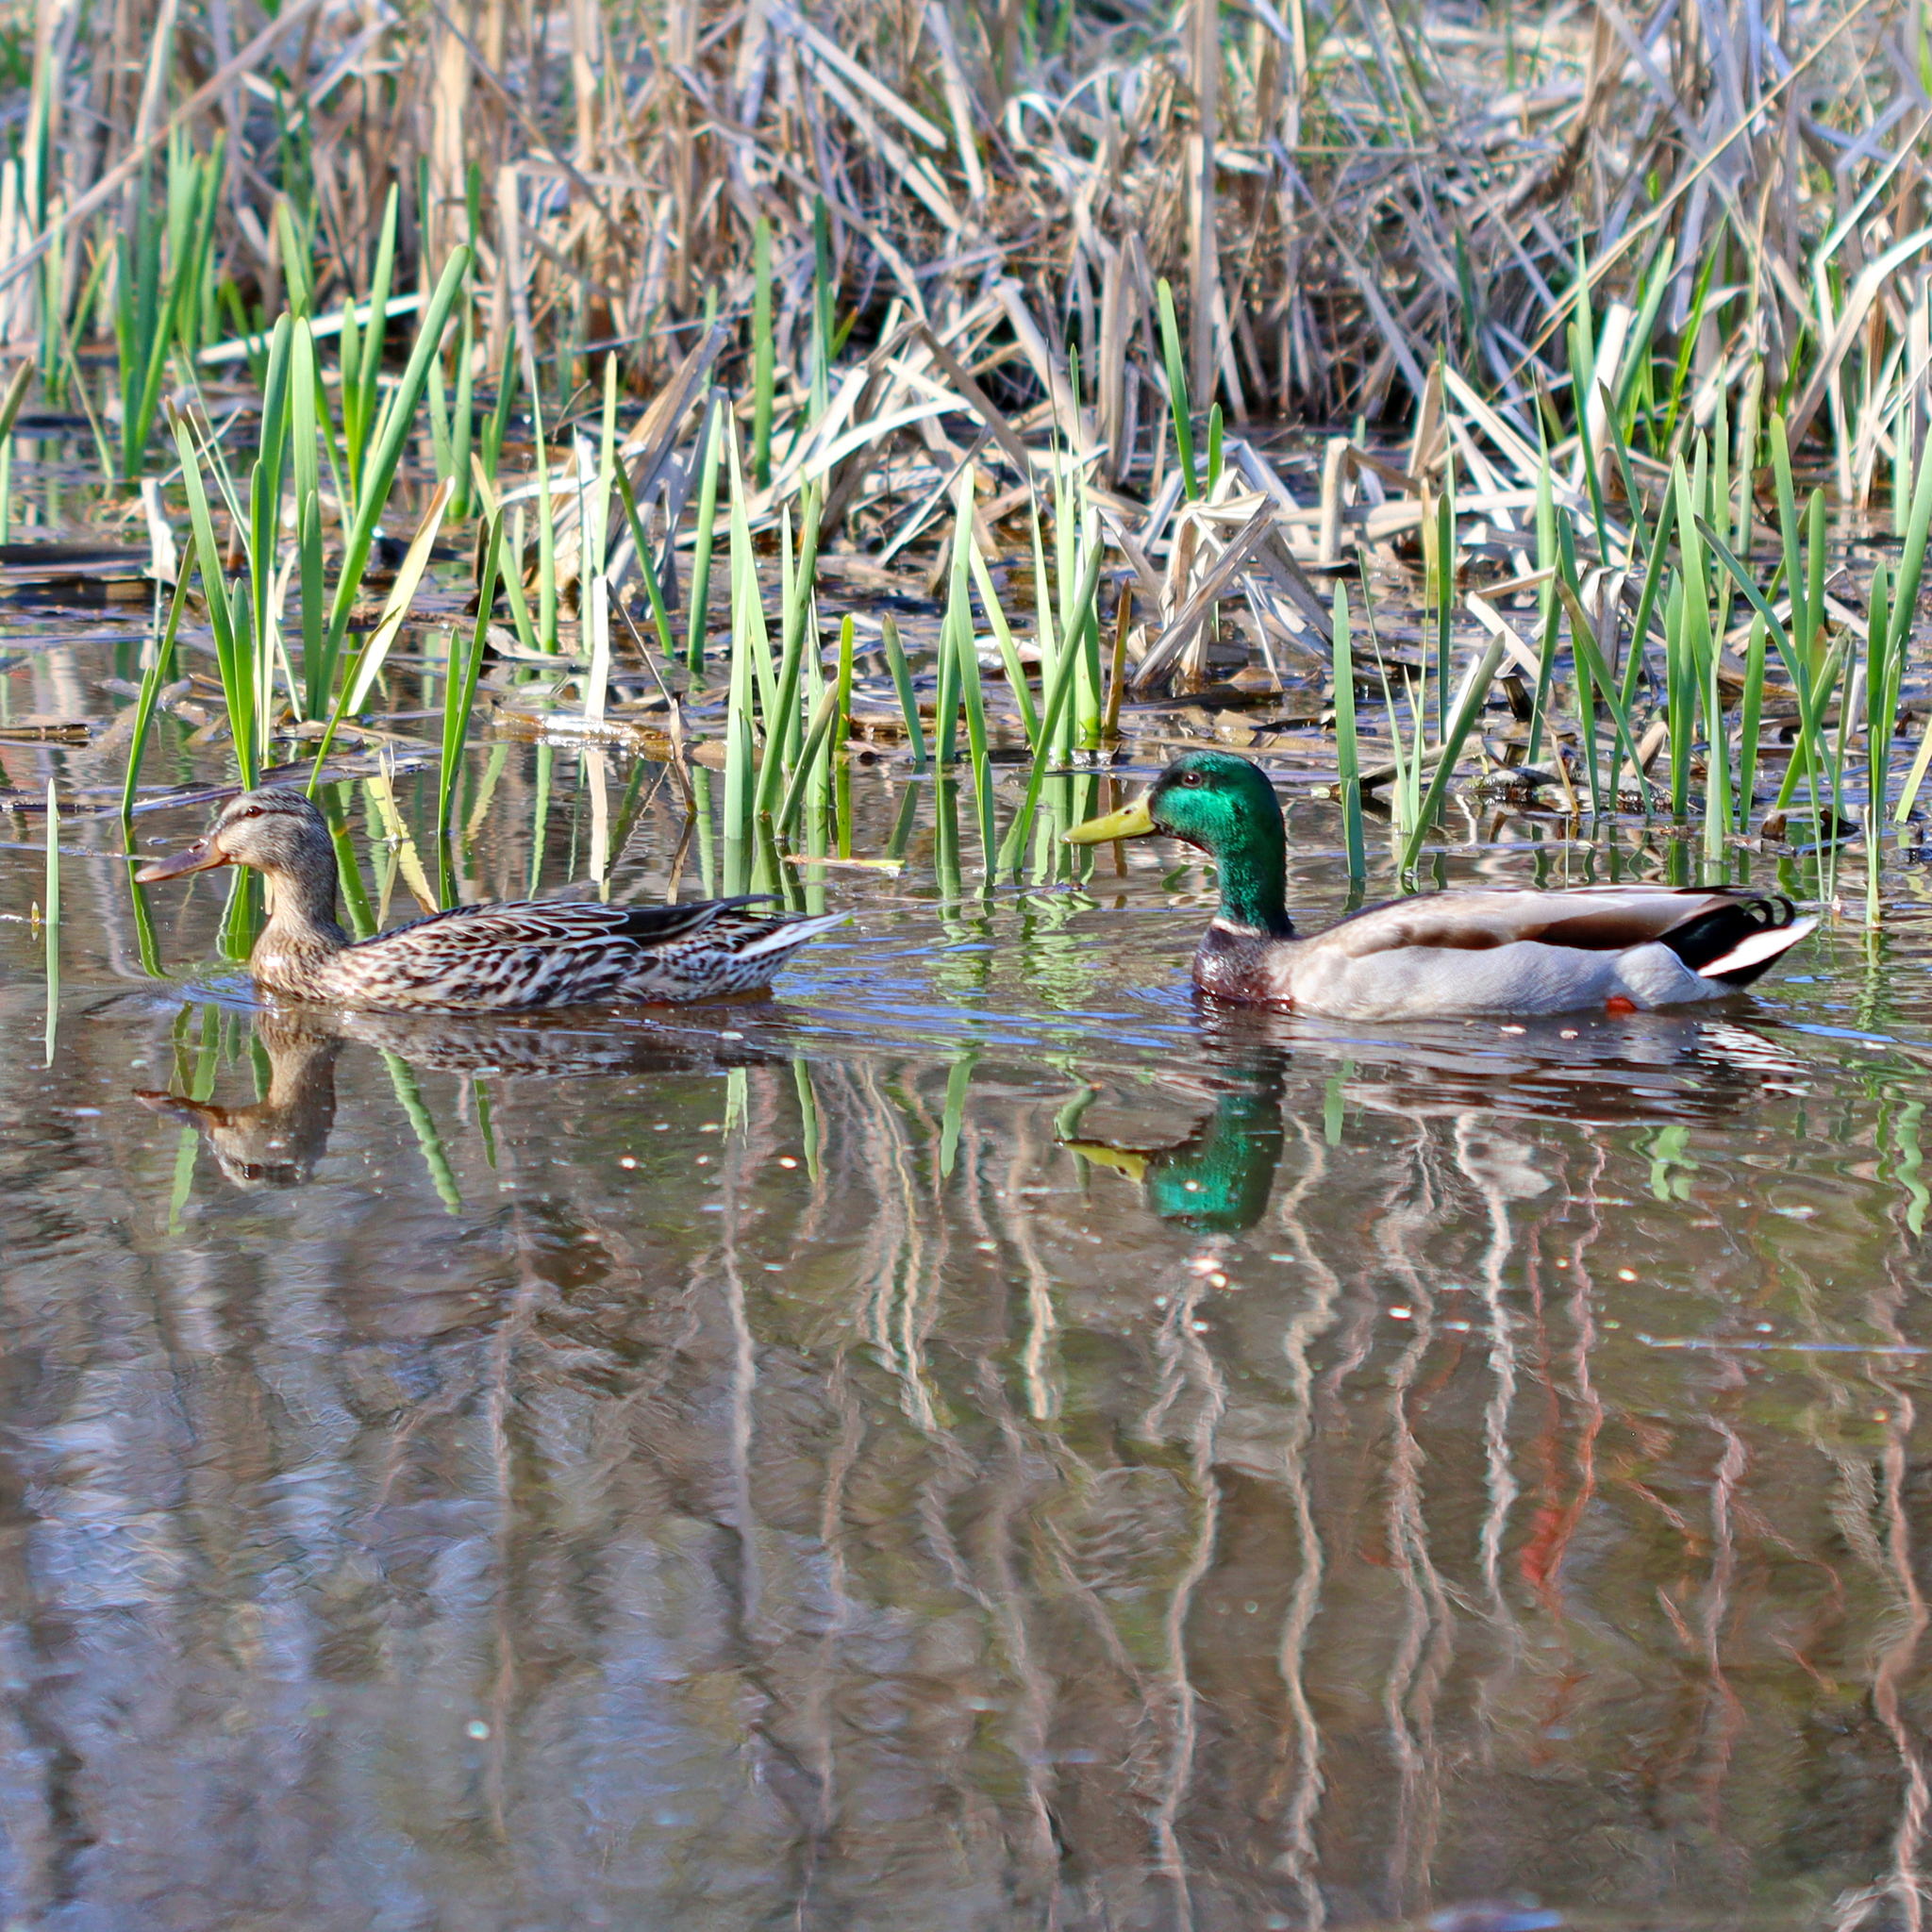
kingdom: Animalia
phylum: Chordata
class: Aves
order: Anseriformes
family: Anatidae
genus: Anas
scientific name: Anas platyrhynchos
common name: Mallard
